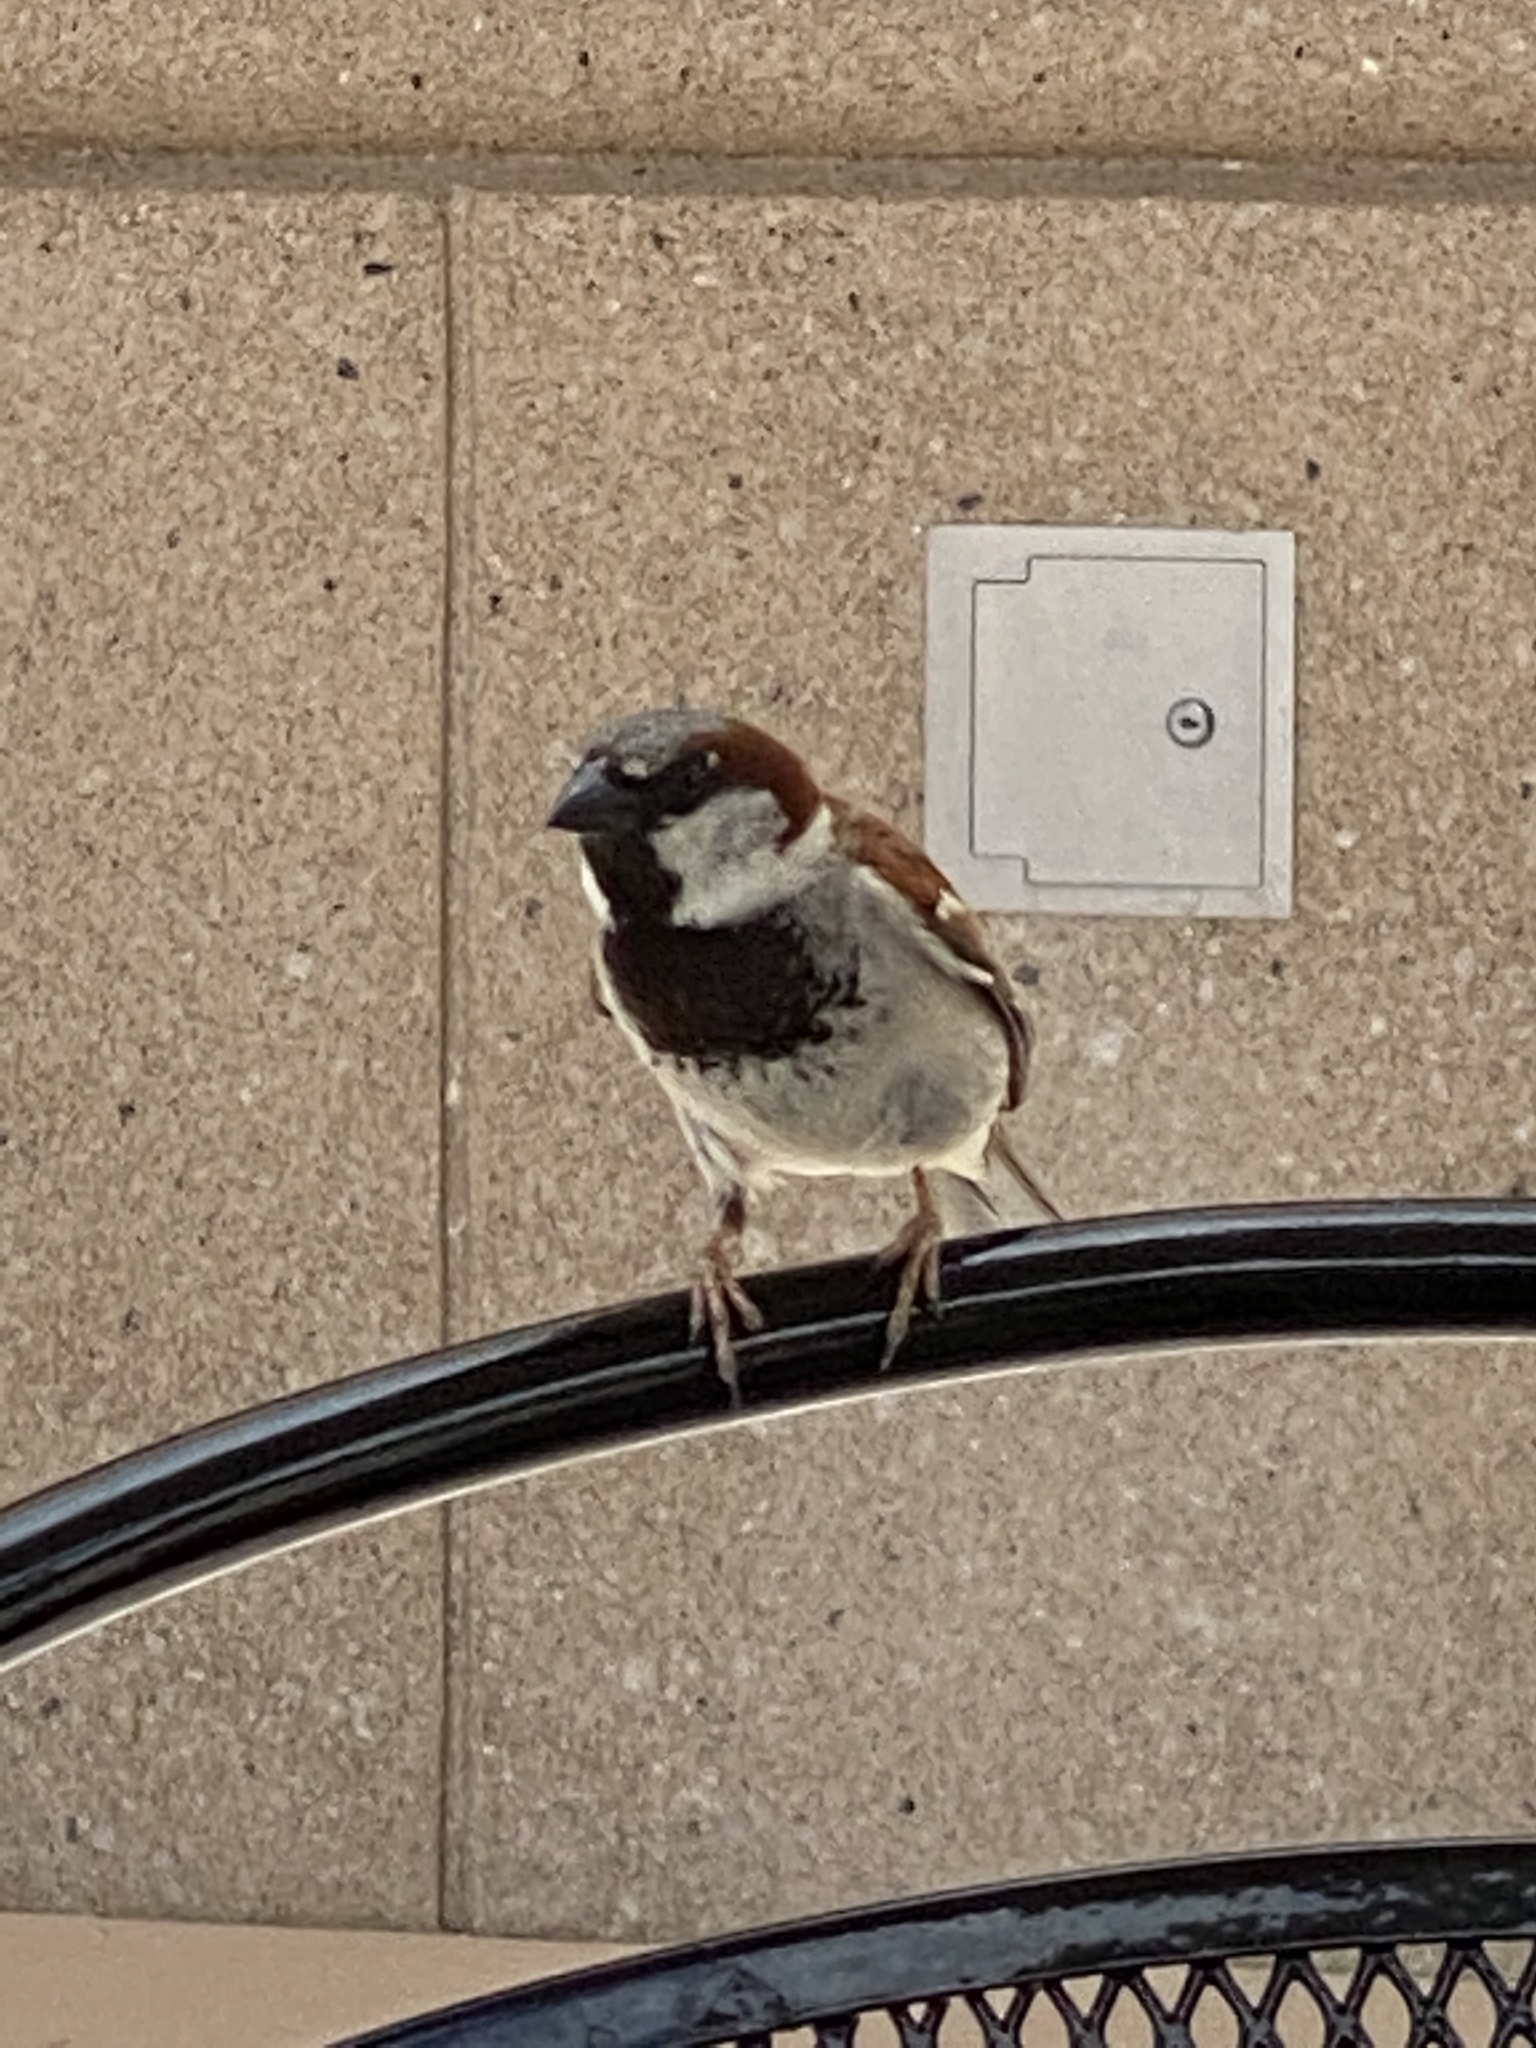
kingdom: Animalia
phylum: Chordata
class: Aves
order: Passeriformes
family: Passeridae
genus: Passer
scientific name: Passer domesticus
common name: House sparrow
